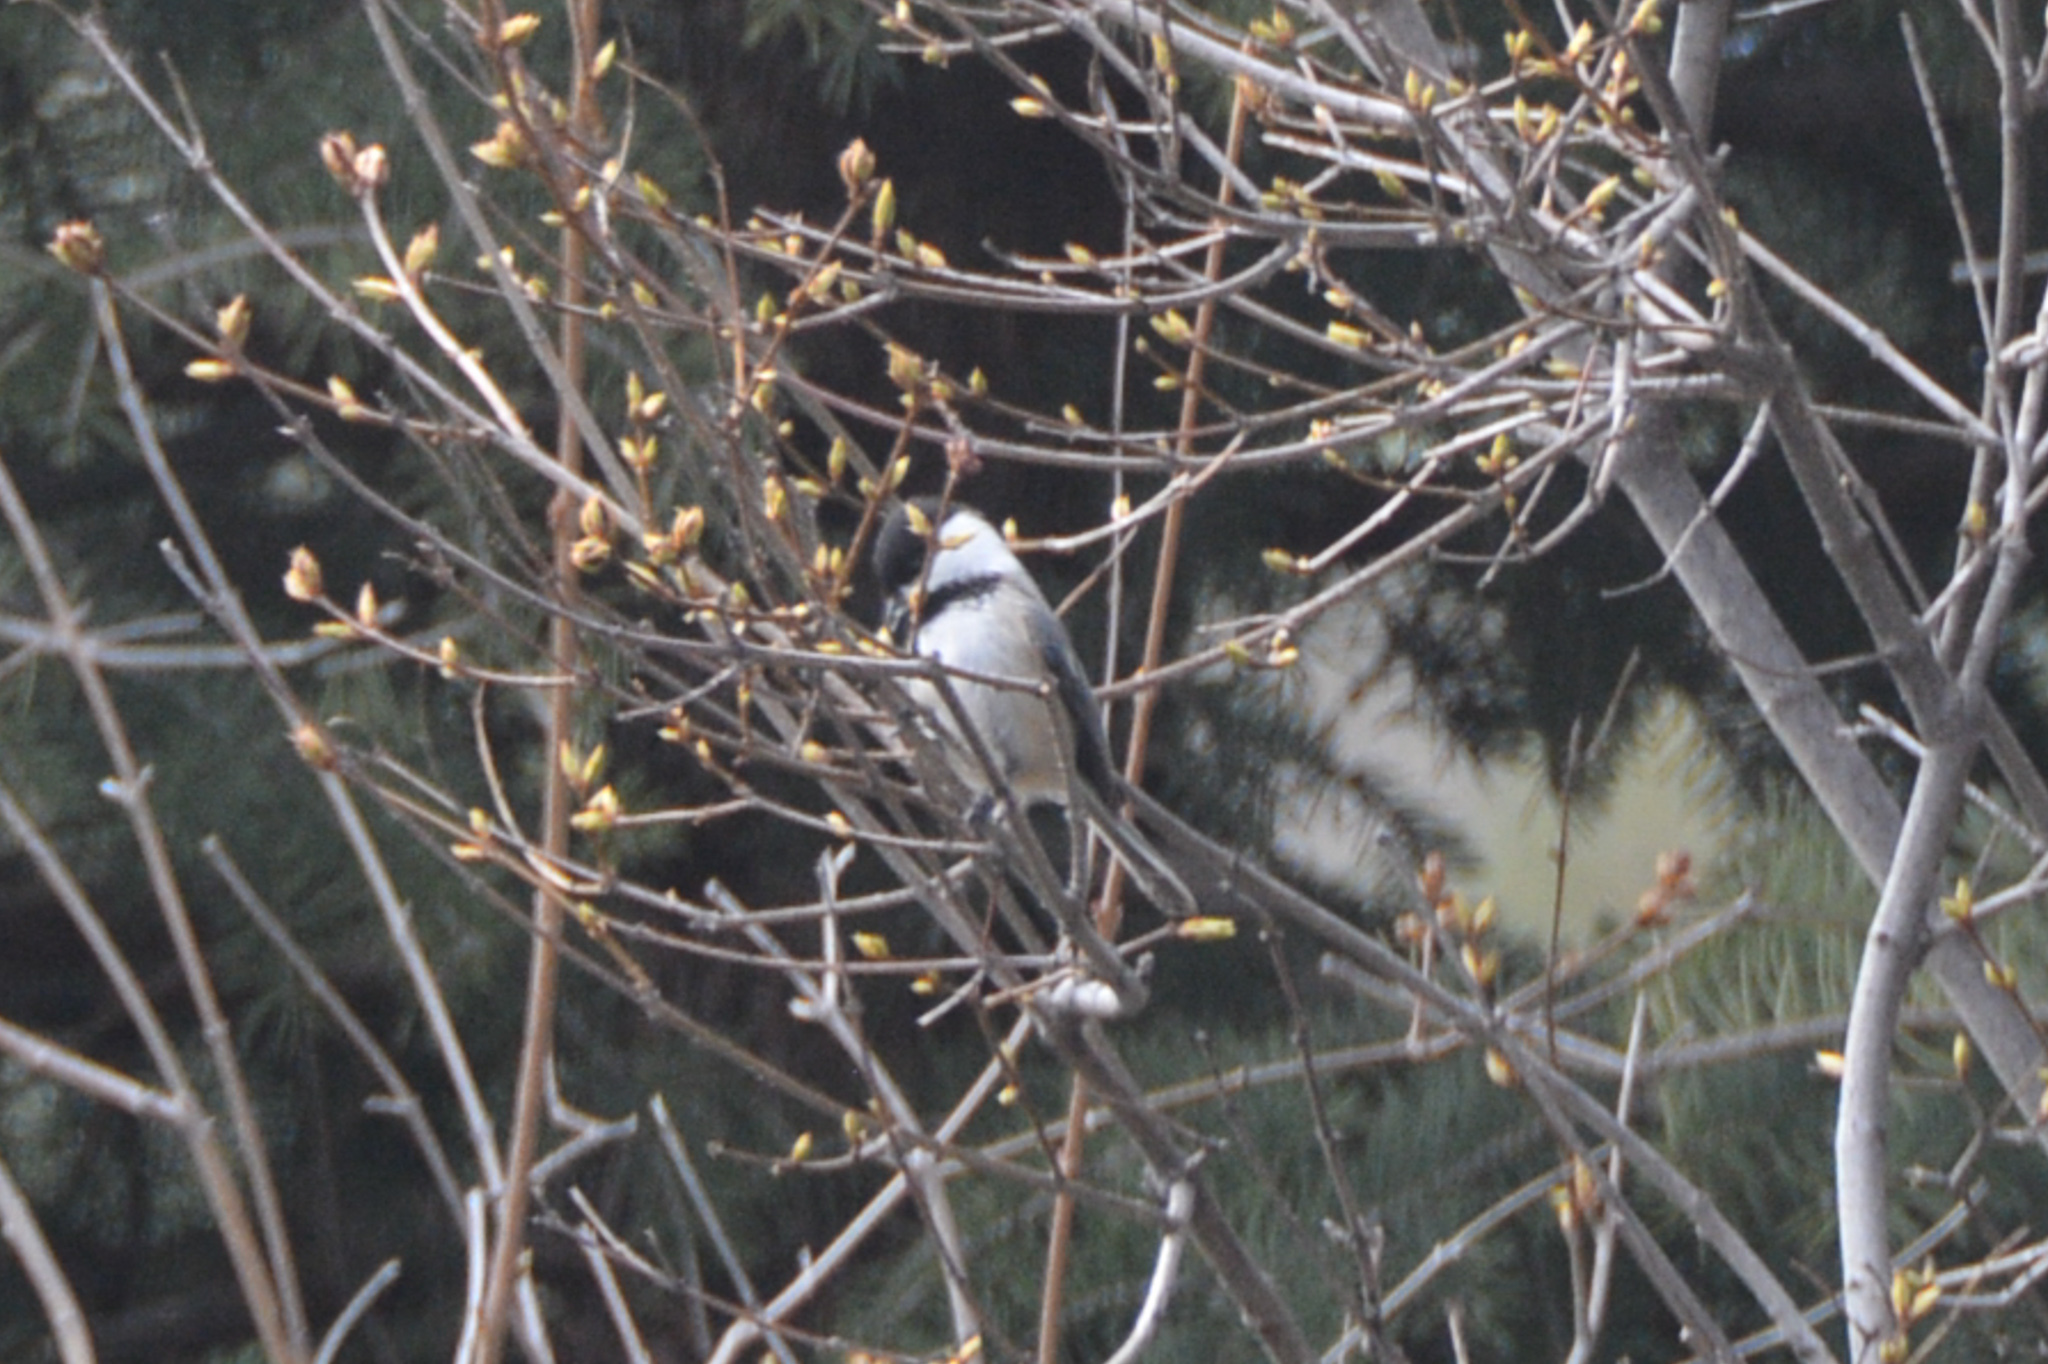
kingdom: Animalia
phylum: Chordata
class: Aves
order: Passeriformes
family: Paridae
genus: Poecile
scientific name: Poecile atricapillus
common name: Black-capped chickadee
